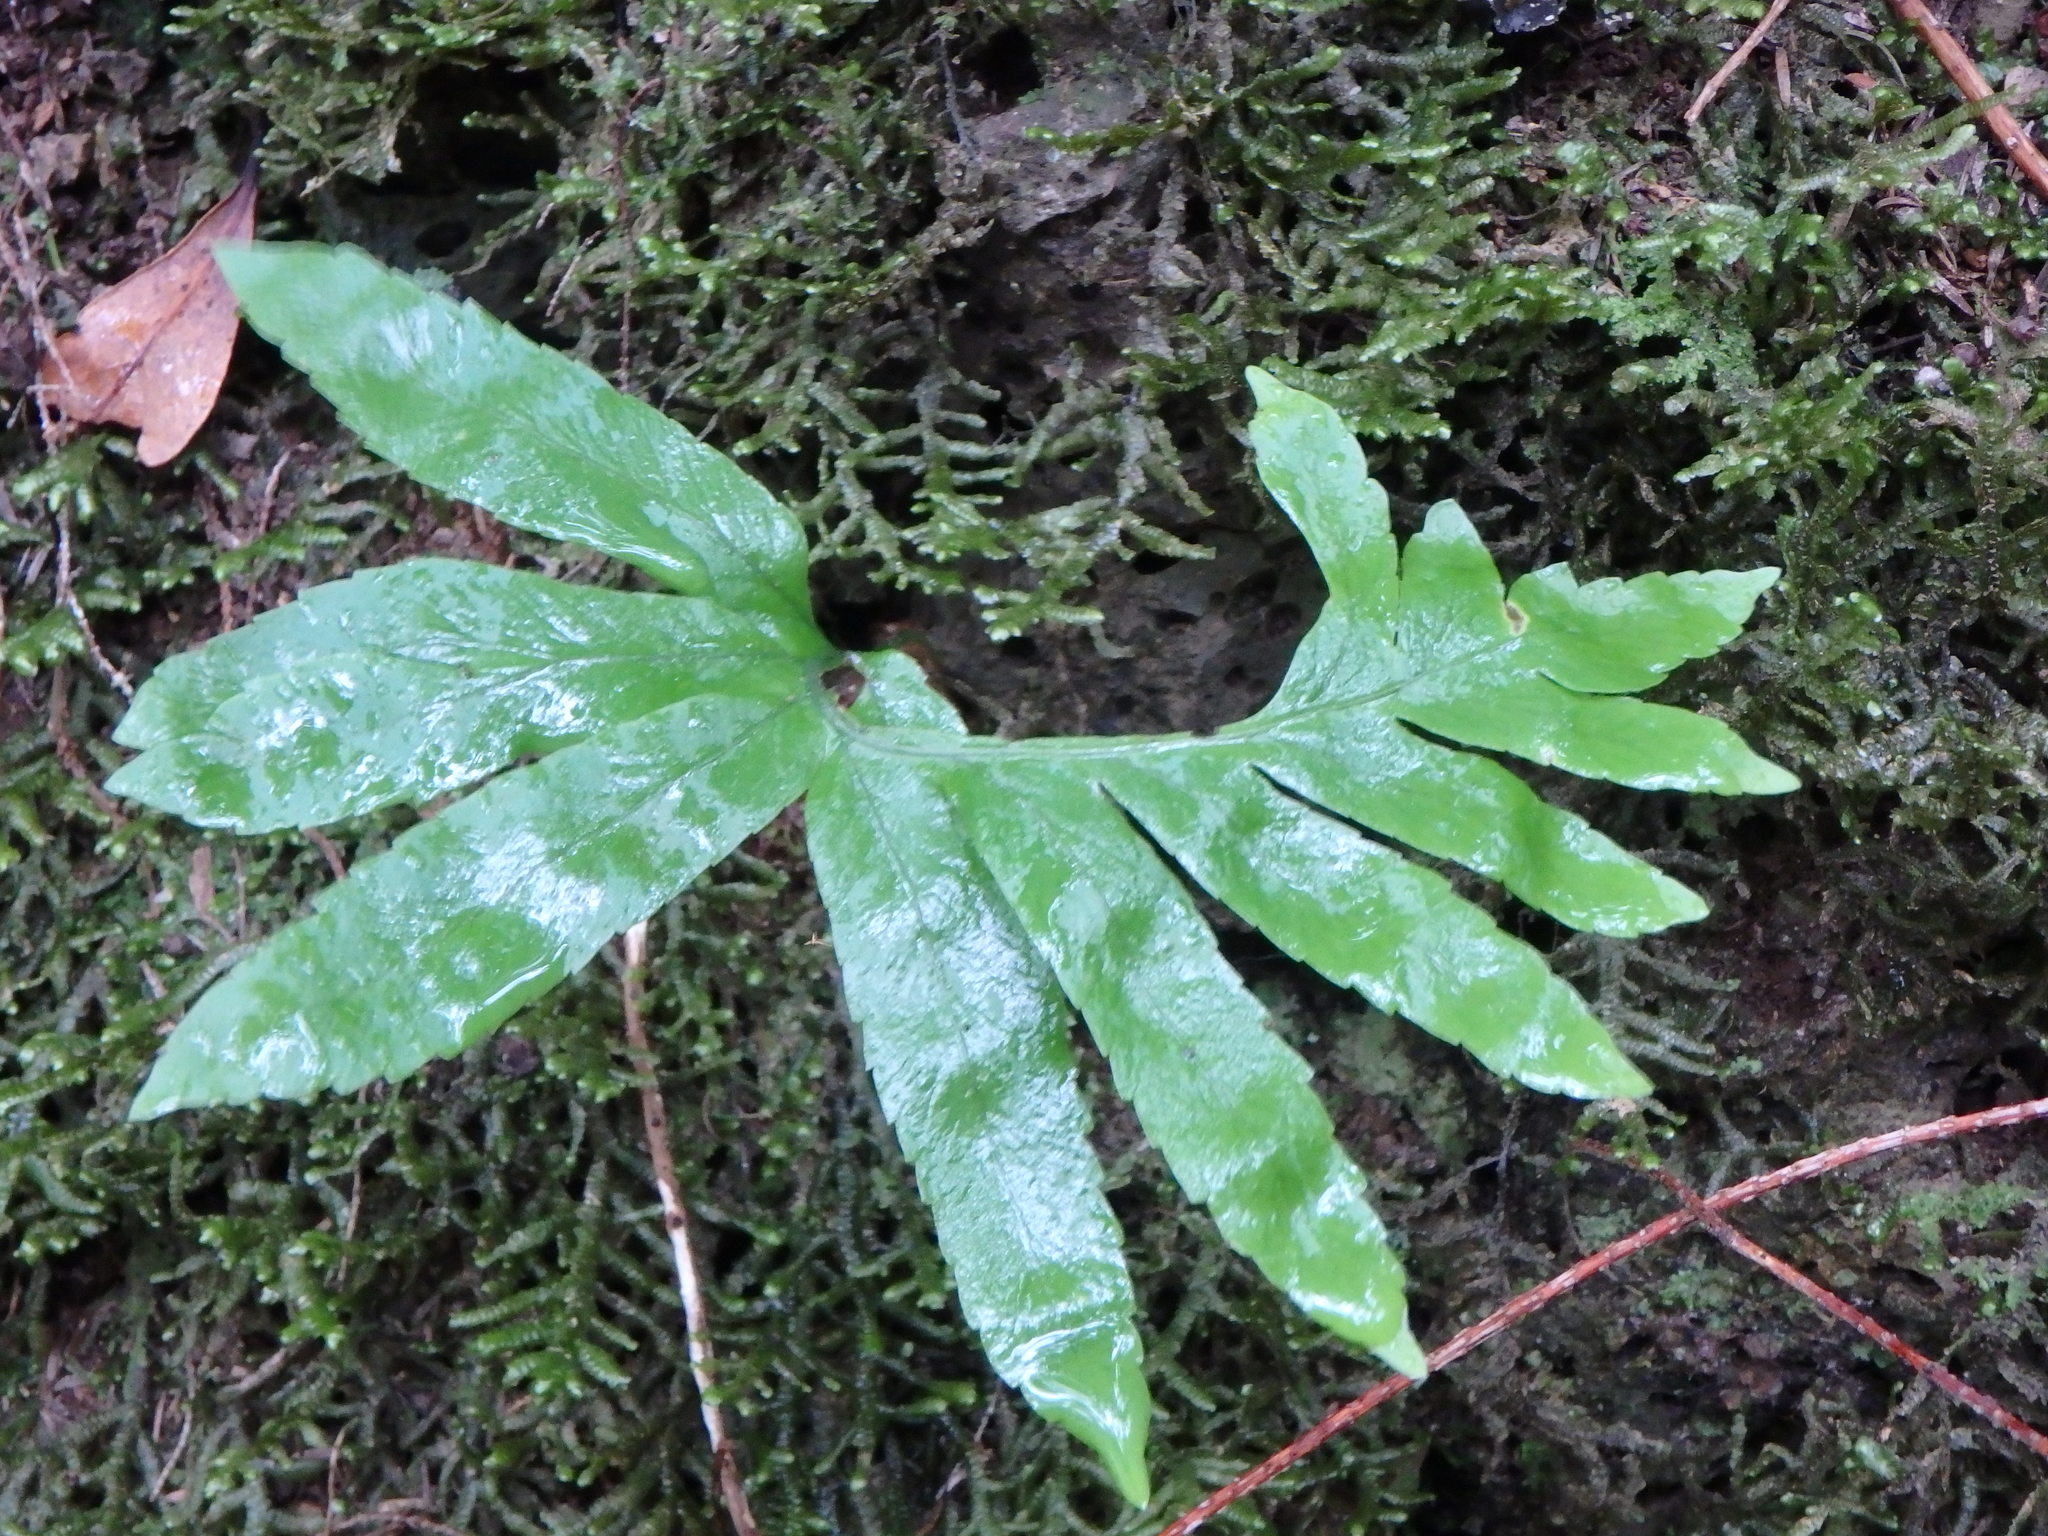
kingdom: Plantae
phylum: Tracheophyta
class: Polypodiopsida
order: Polypodiales
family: Polypodiaceae
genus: Polypodium
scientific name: Polypodium macaronesicum
